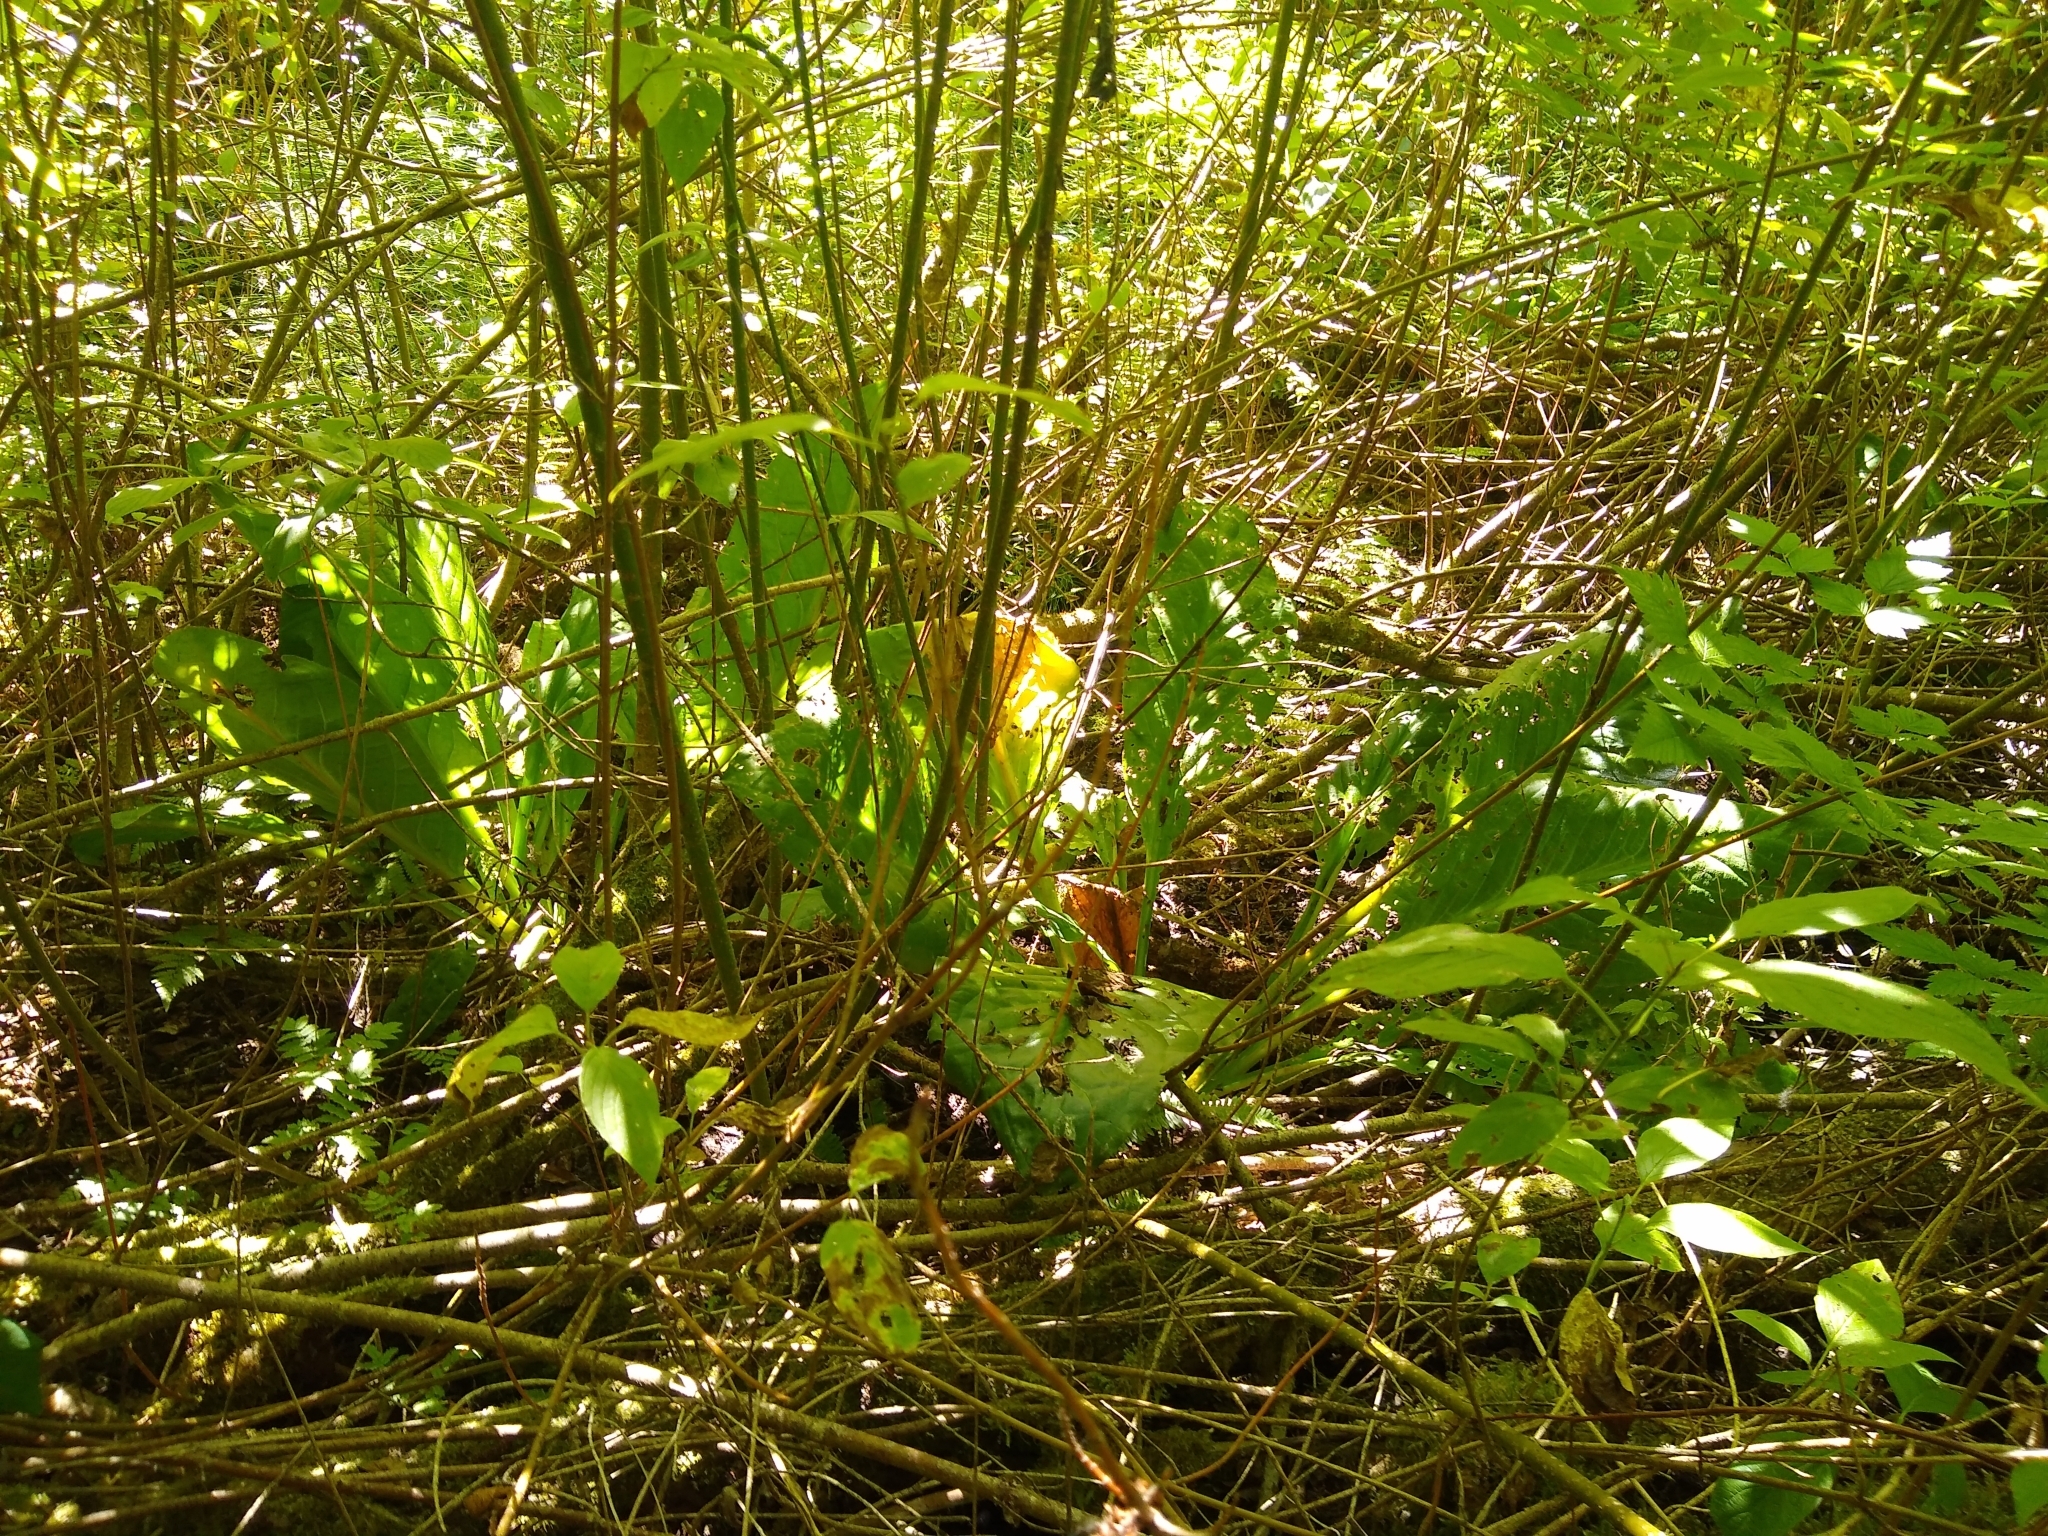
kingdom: Plantae
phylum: Tracheophyta
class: Liliopsida
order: Alismatales
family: Araceae
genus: Lysichiton
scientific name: Lysichiton americanus
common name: American skunk cabbage
